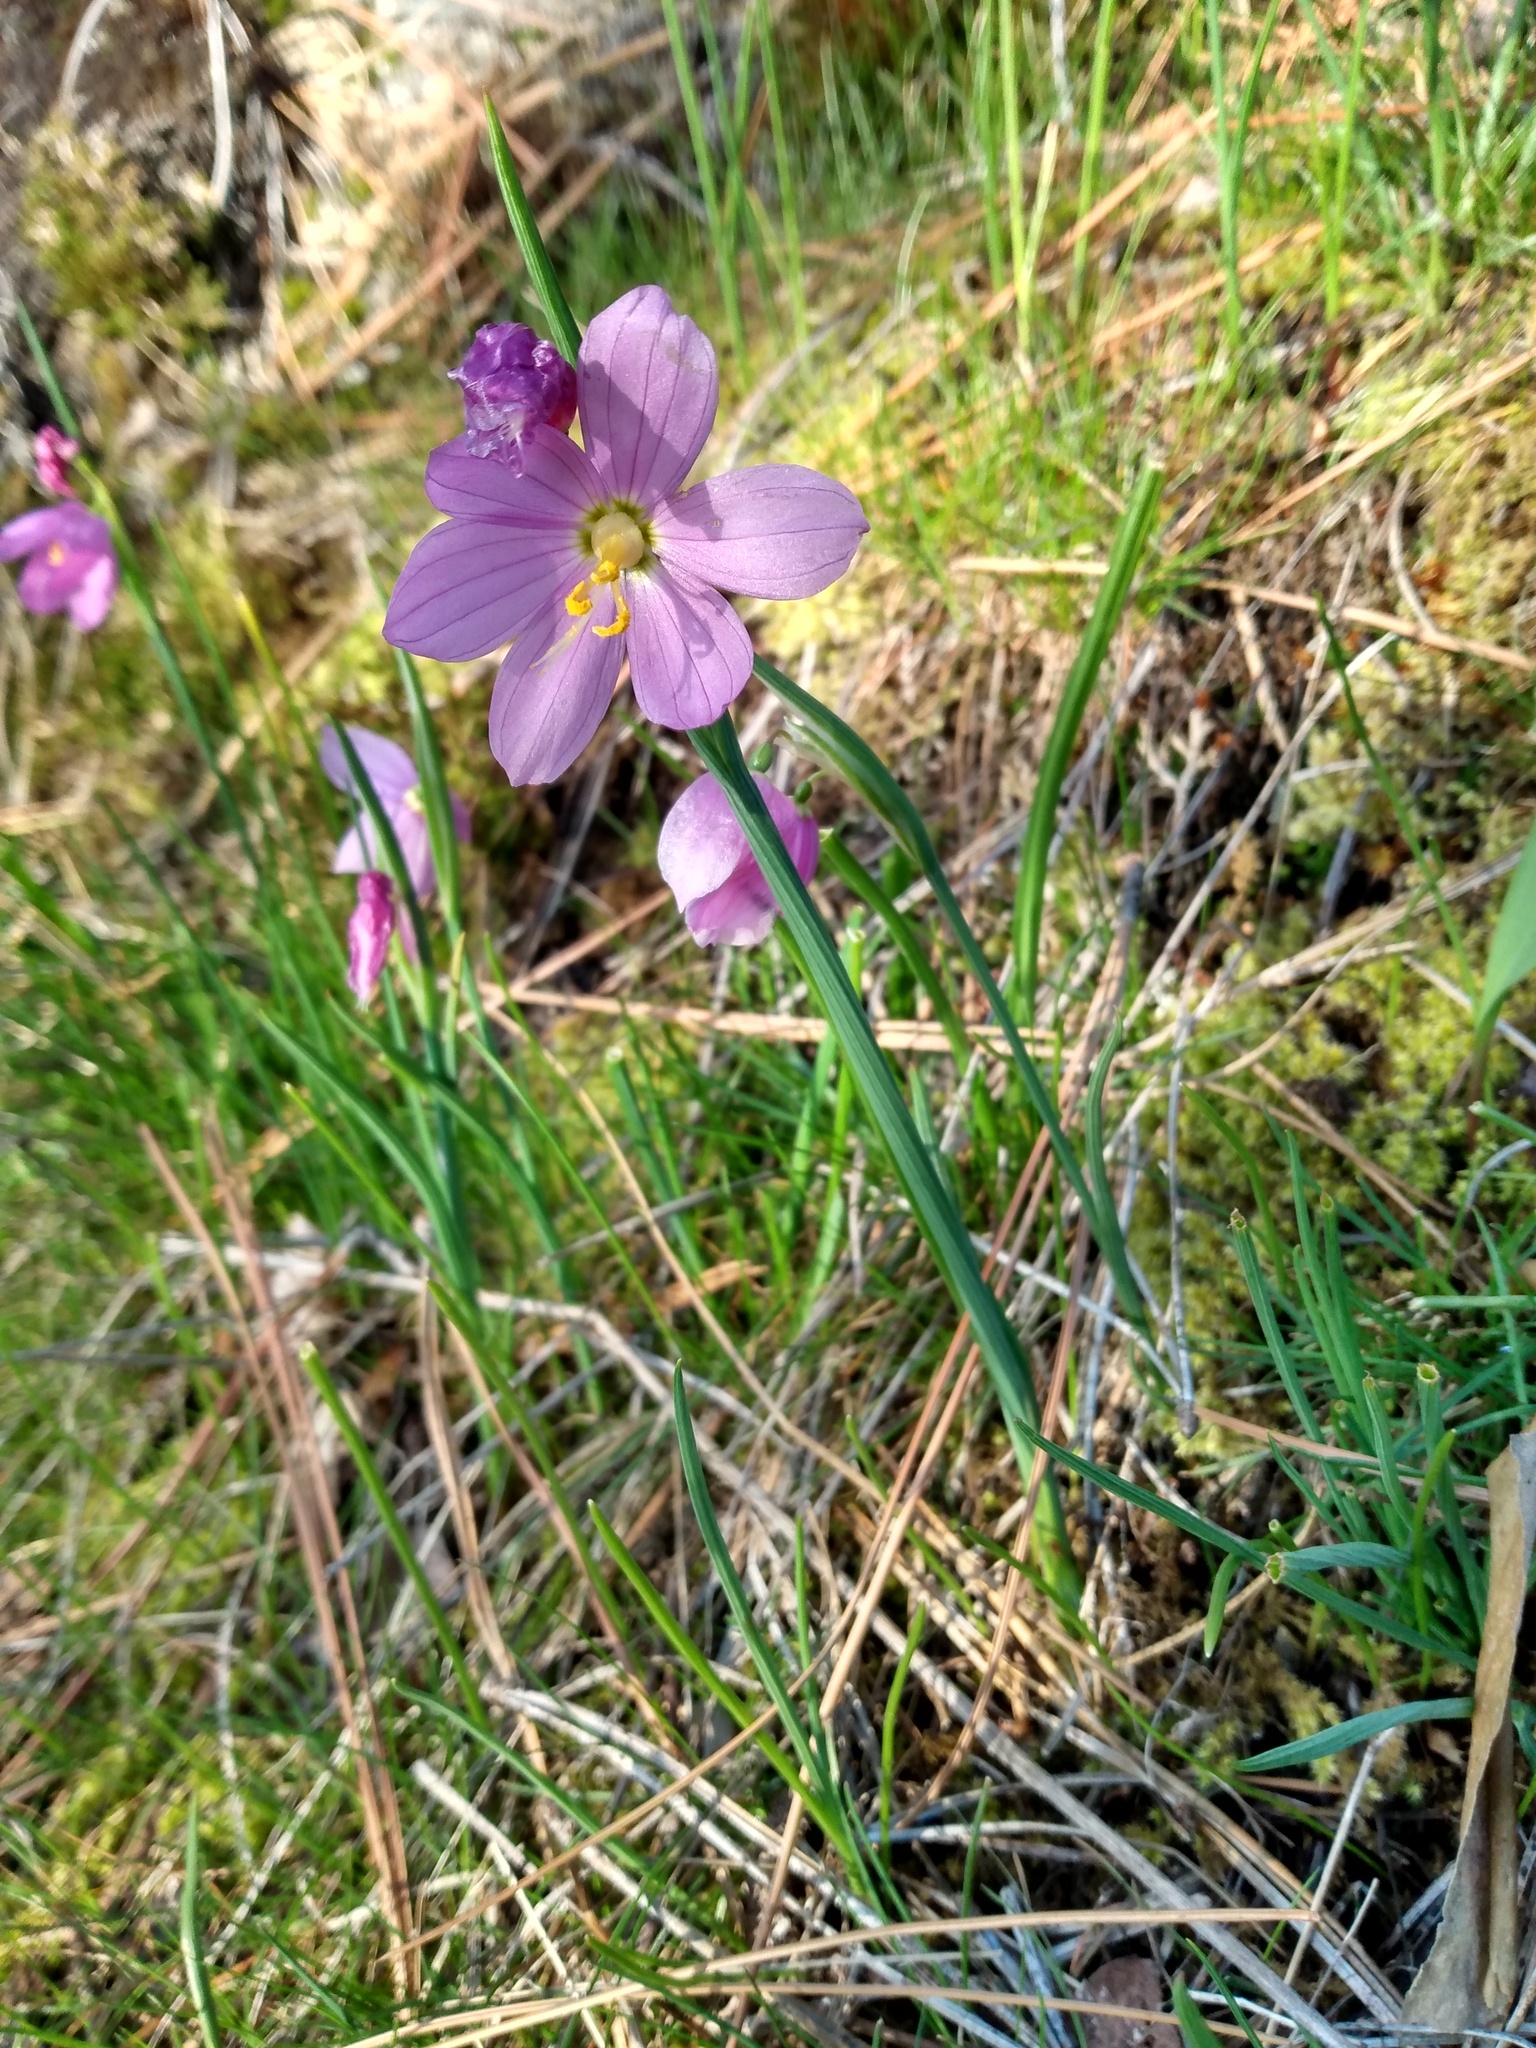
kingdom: Plantae
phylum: Tracheophyta
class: Liliopsida
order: Asparagales
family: Iridaceae
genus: Olsynium
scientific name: Olsynium douglasii
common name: Douglas' grasswidow
